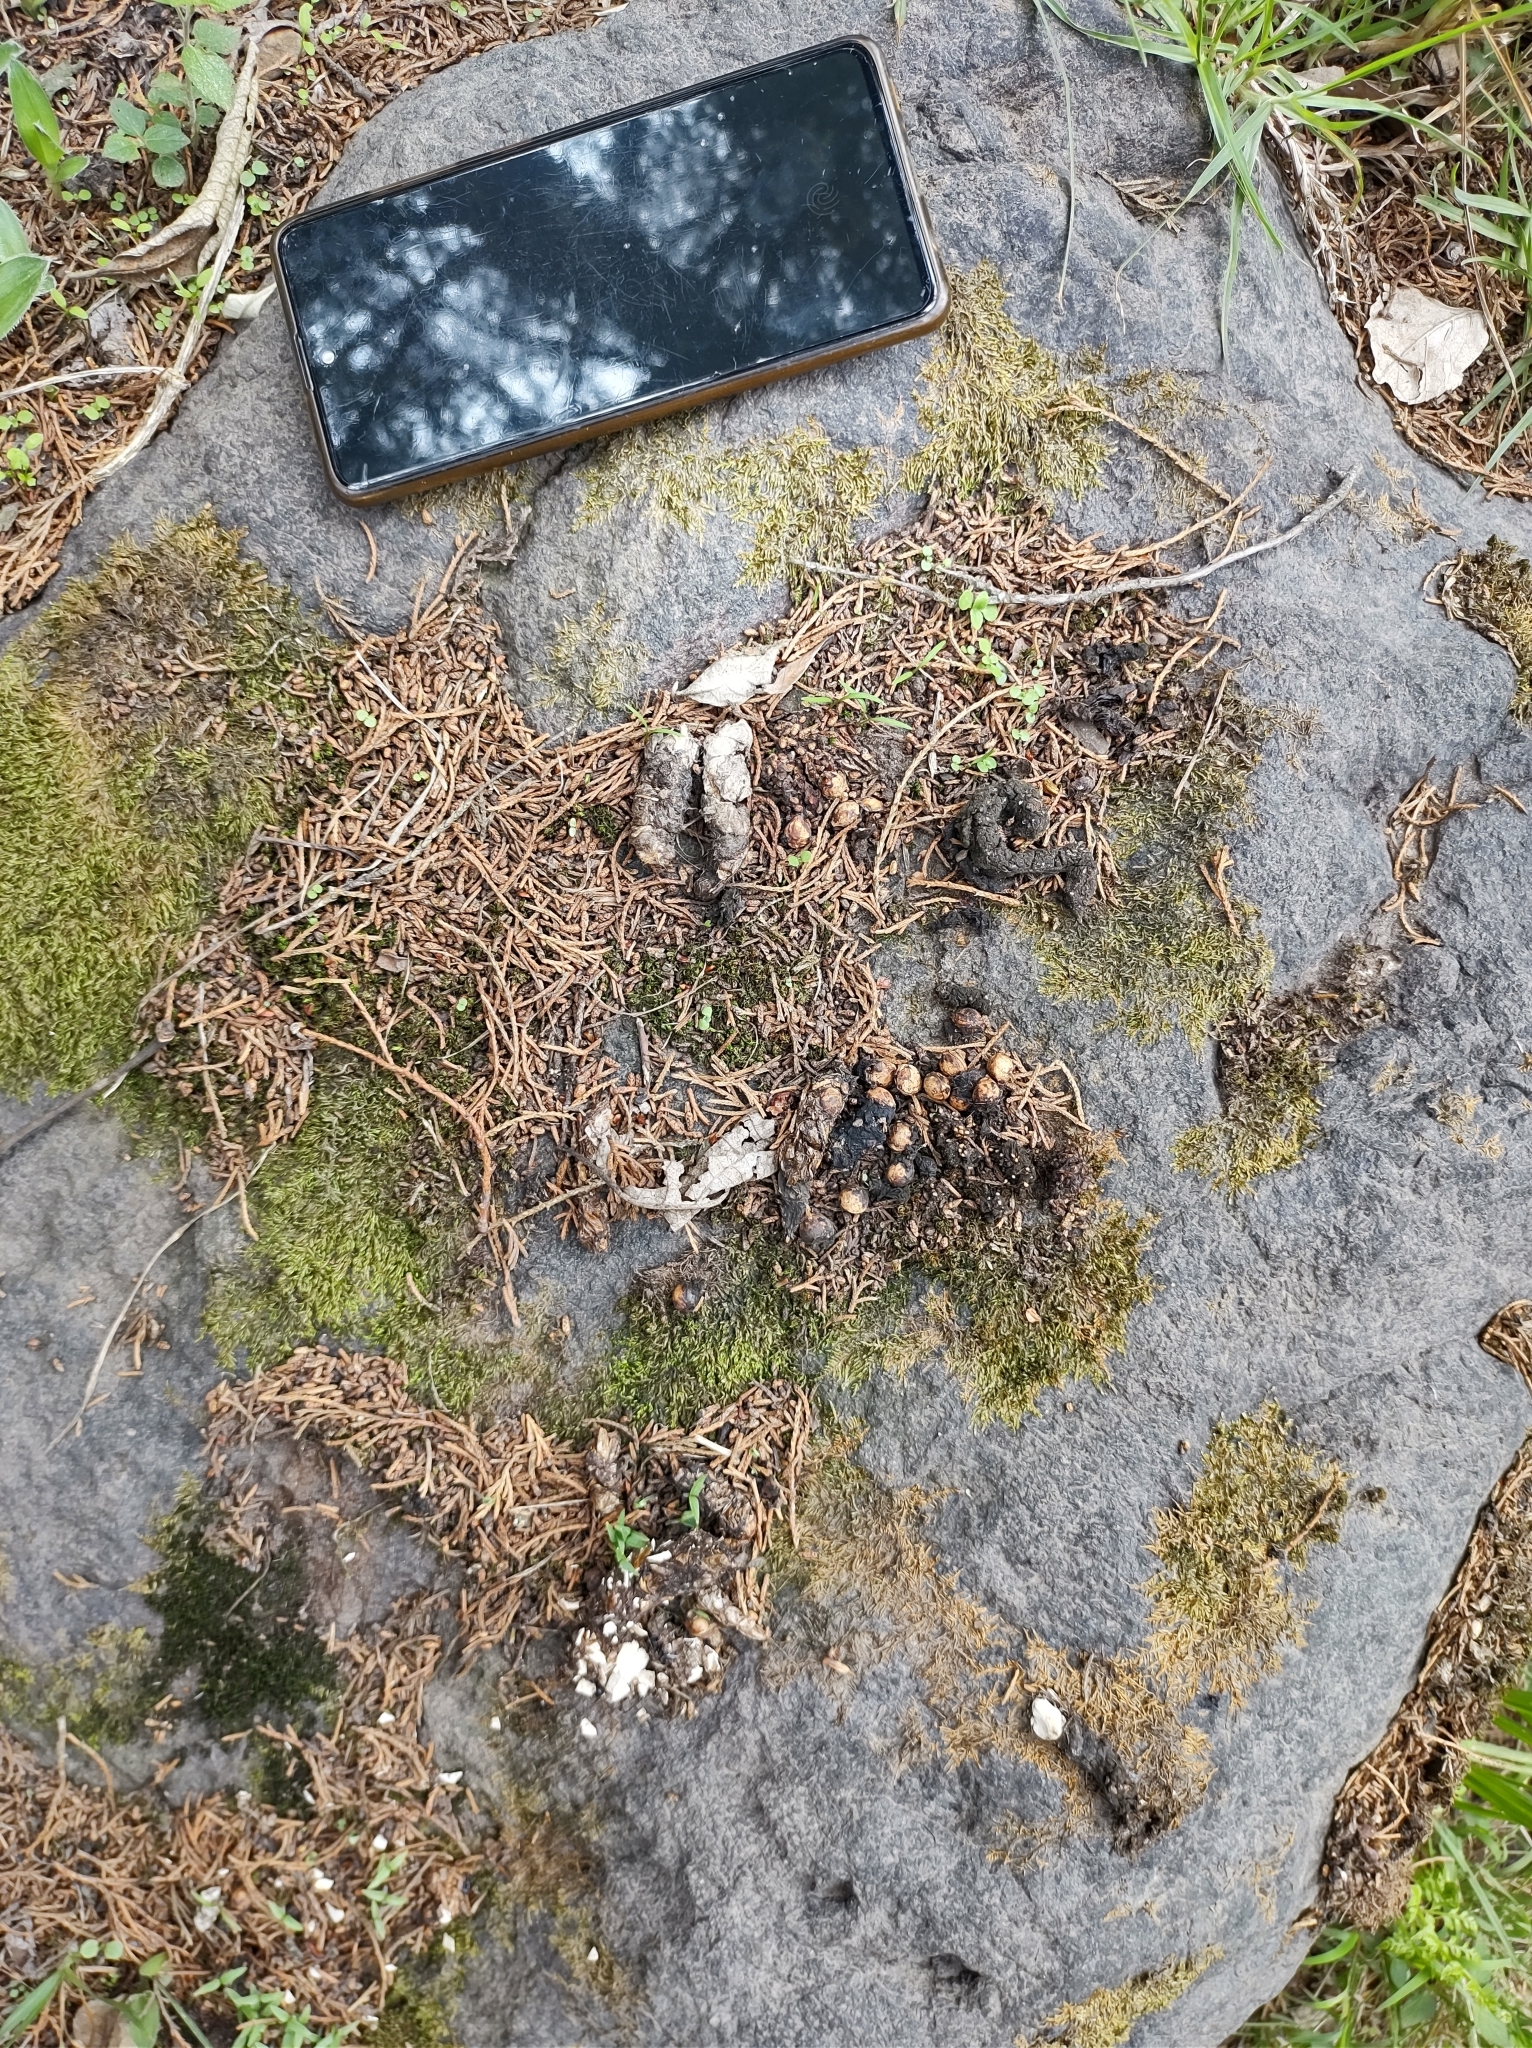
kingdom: Animalia
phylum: Chordata
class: Mammalia
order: Carnivora
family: Procyonidae
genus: Bassariscus
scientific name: Bassariscus astutus
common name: Ringtail
